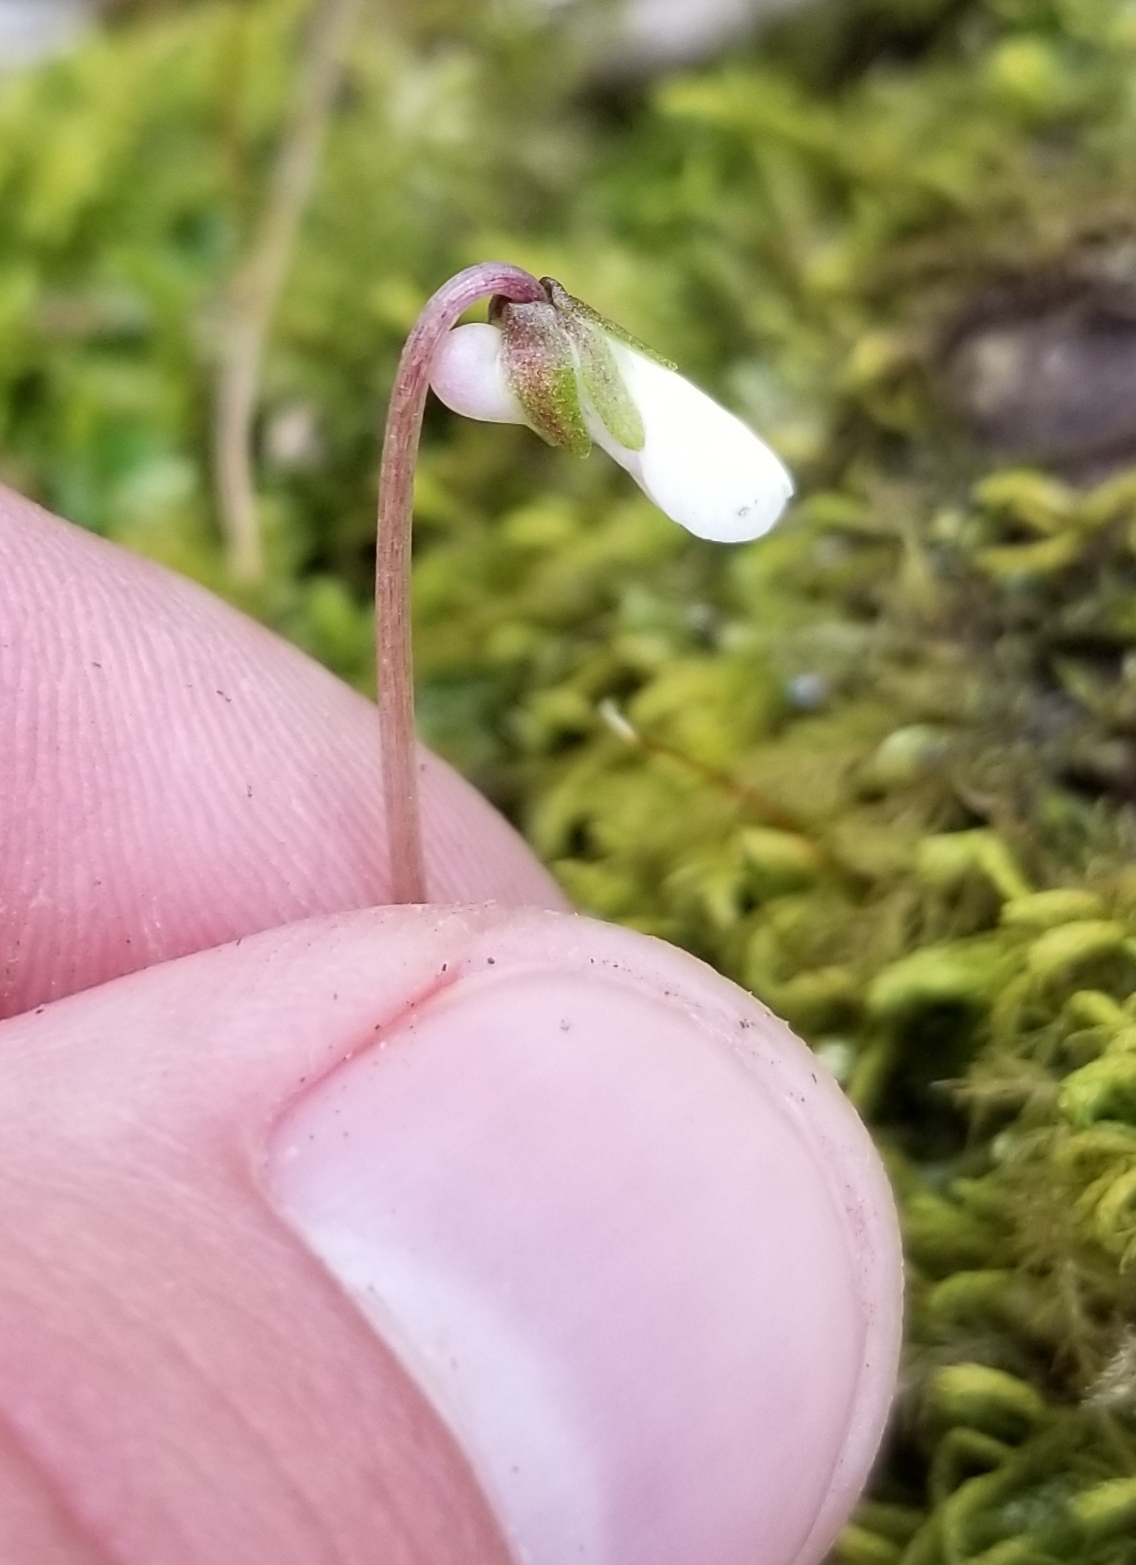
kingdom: Plantae
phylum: Tracheophyta
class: Magnoliopsida
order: Malpighiales
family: Violaceae
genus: Viola
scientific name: Viola blanda
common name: Sweet white violet
